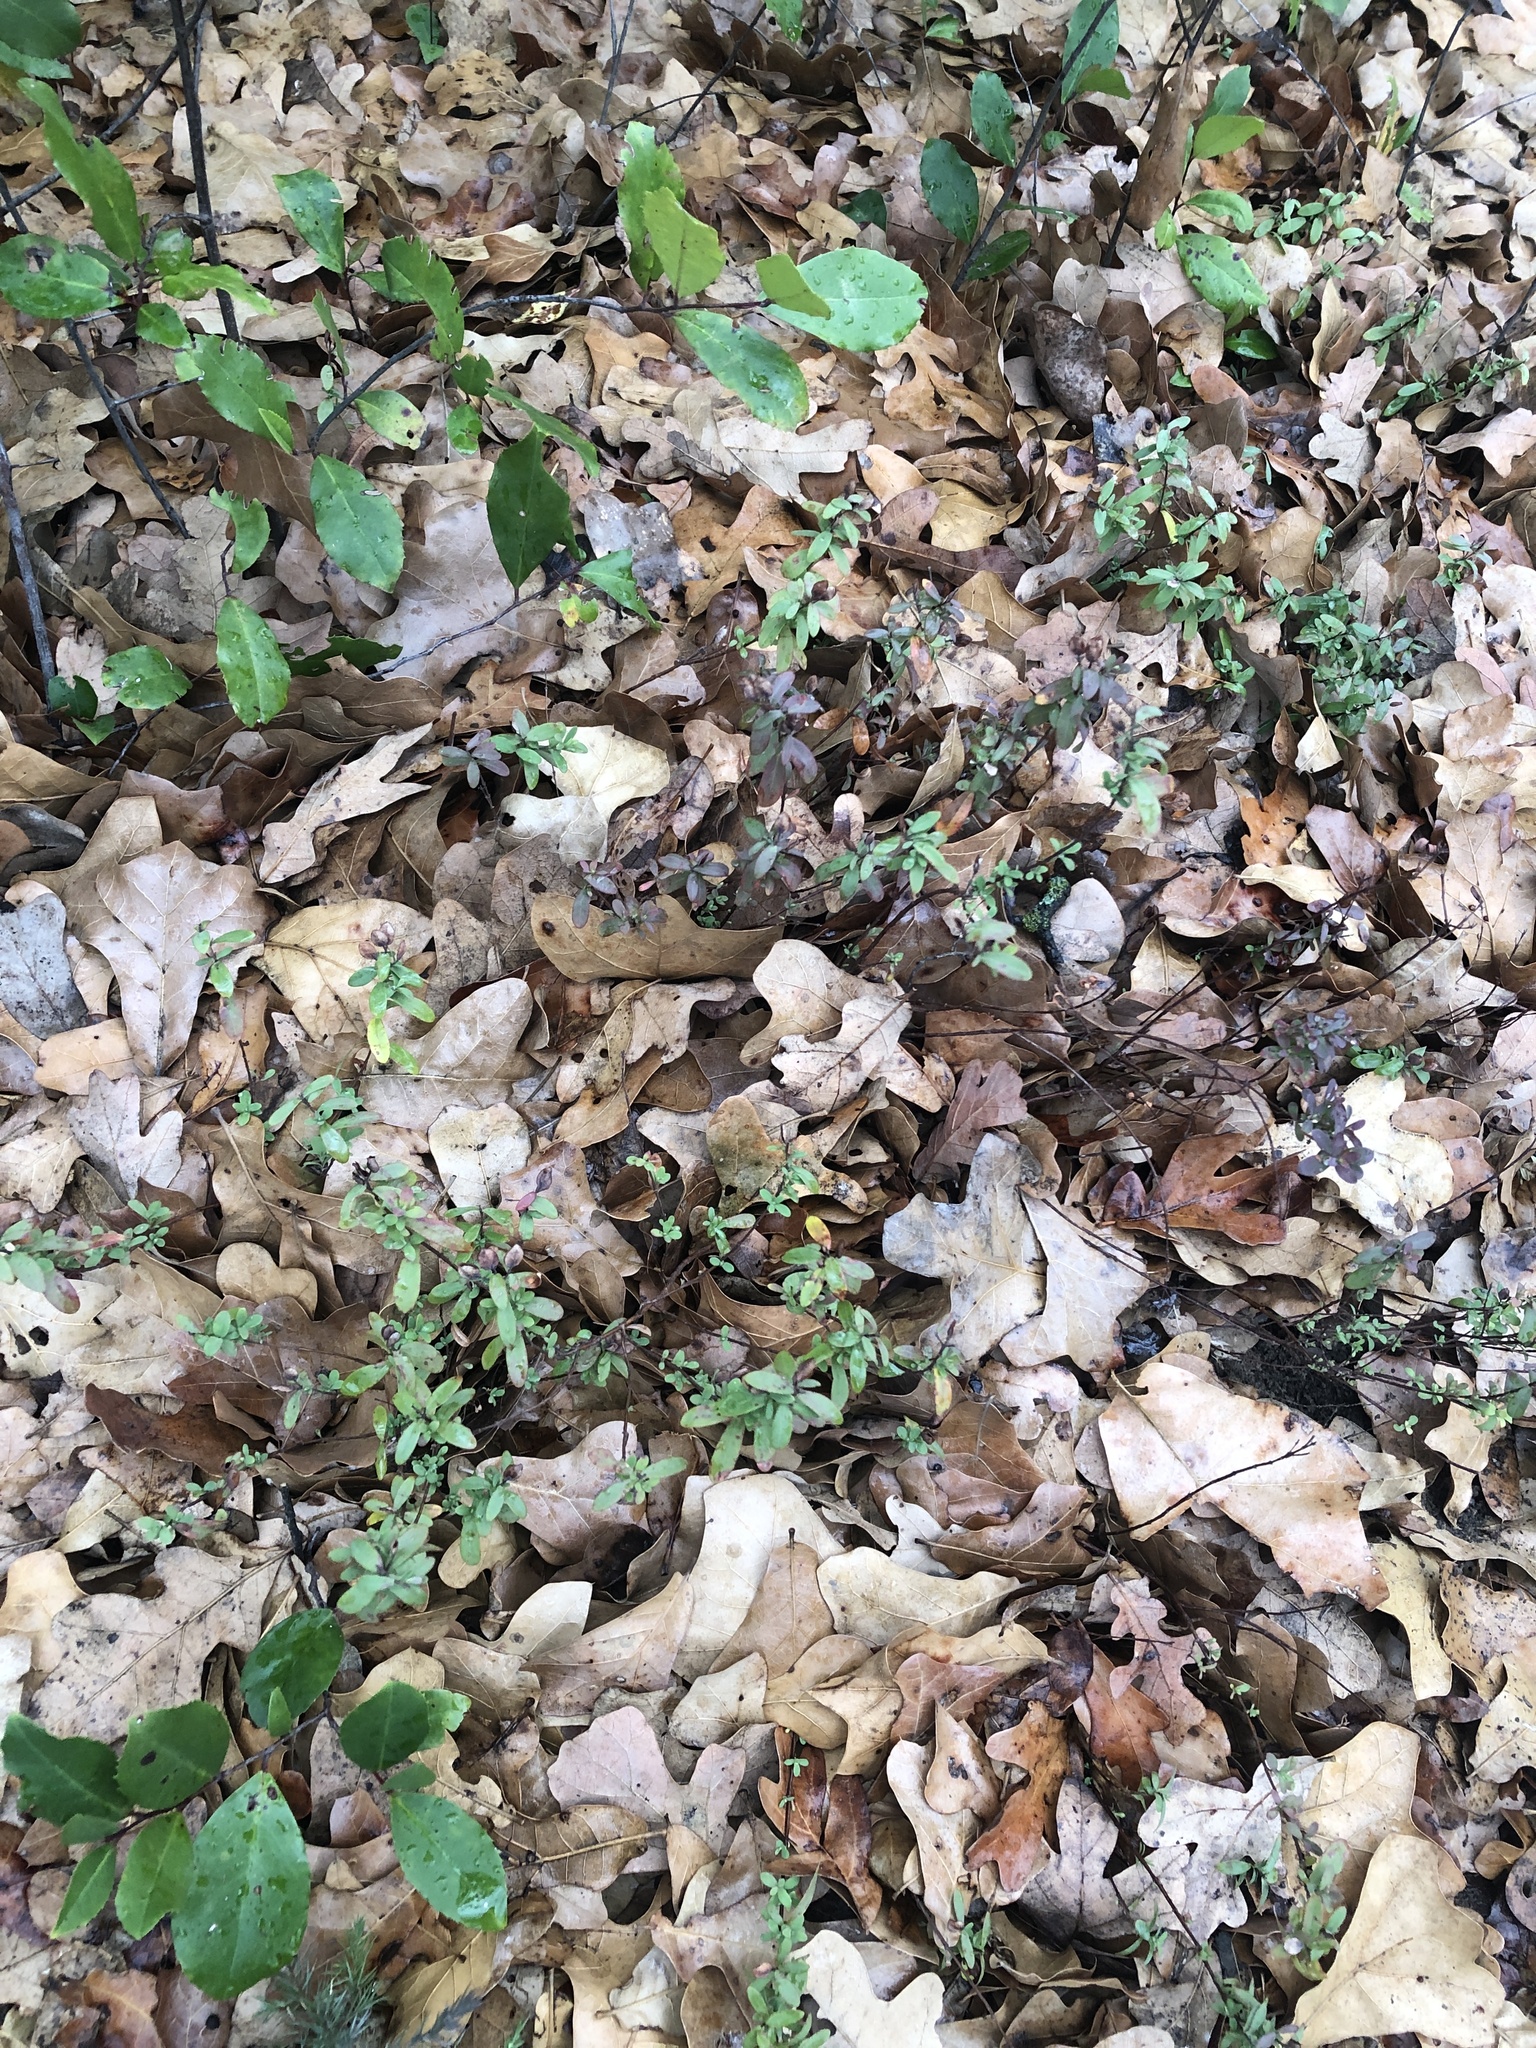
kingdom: Plantae
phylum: Tracheophyta
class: Magnoliopsida
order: Malpighiales
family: Hypericaceae
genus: Hypericum
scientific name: Hypericum hypericoides
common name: St. andrew's cross
